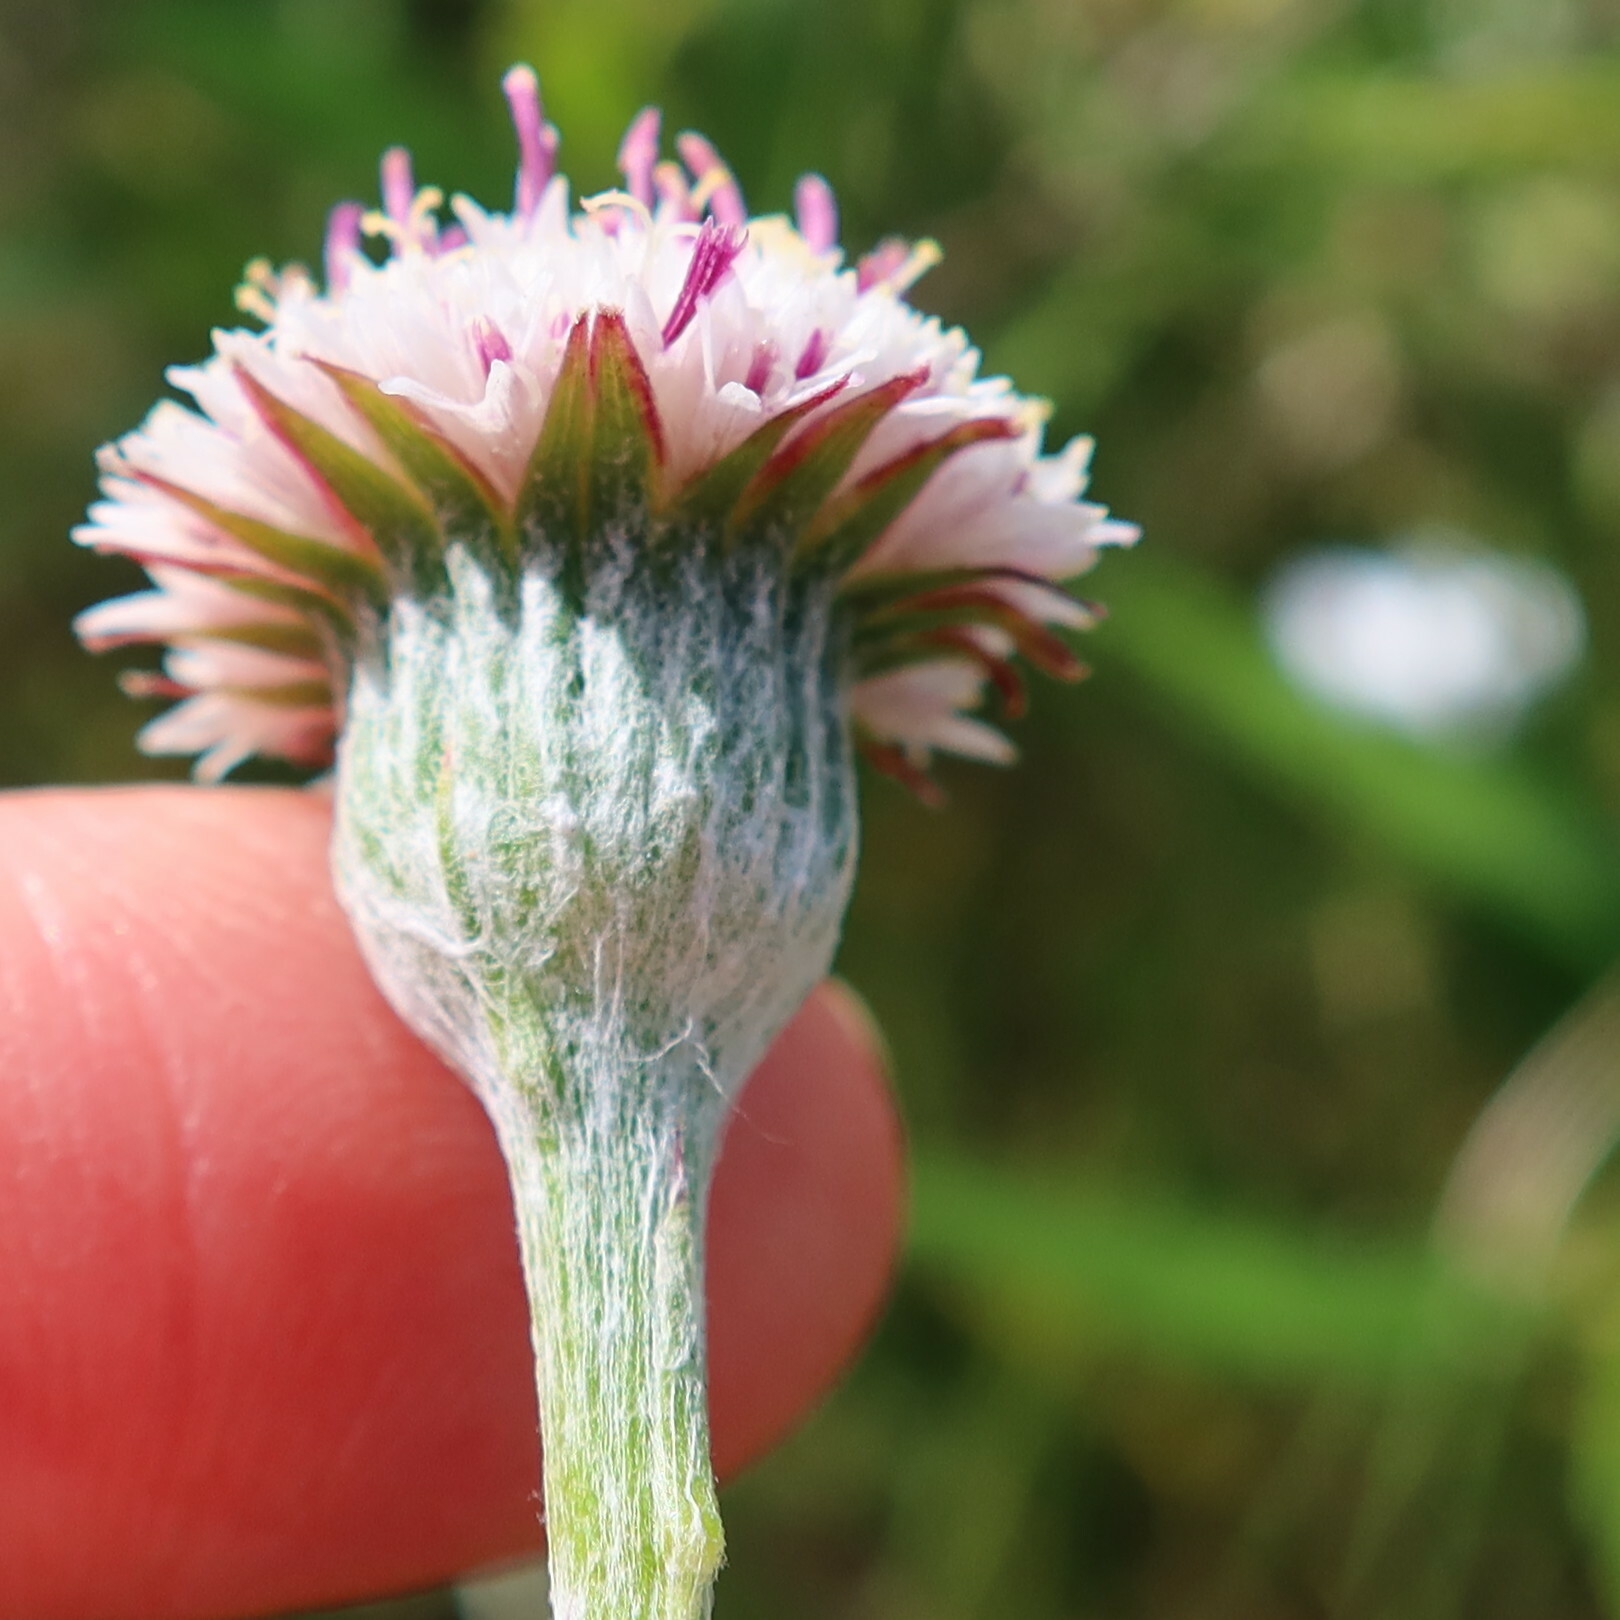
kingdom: Plantae
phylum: Tracheophyta
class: Magnoliopsida
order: Asterales
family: Asteraceae
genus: Bolandia
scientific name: Bolandia elongata
